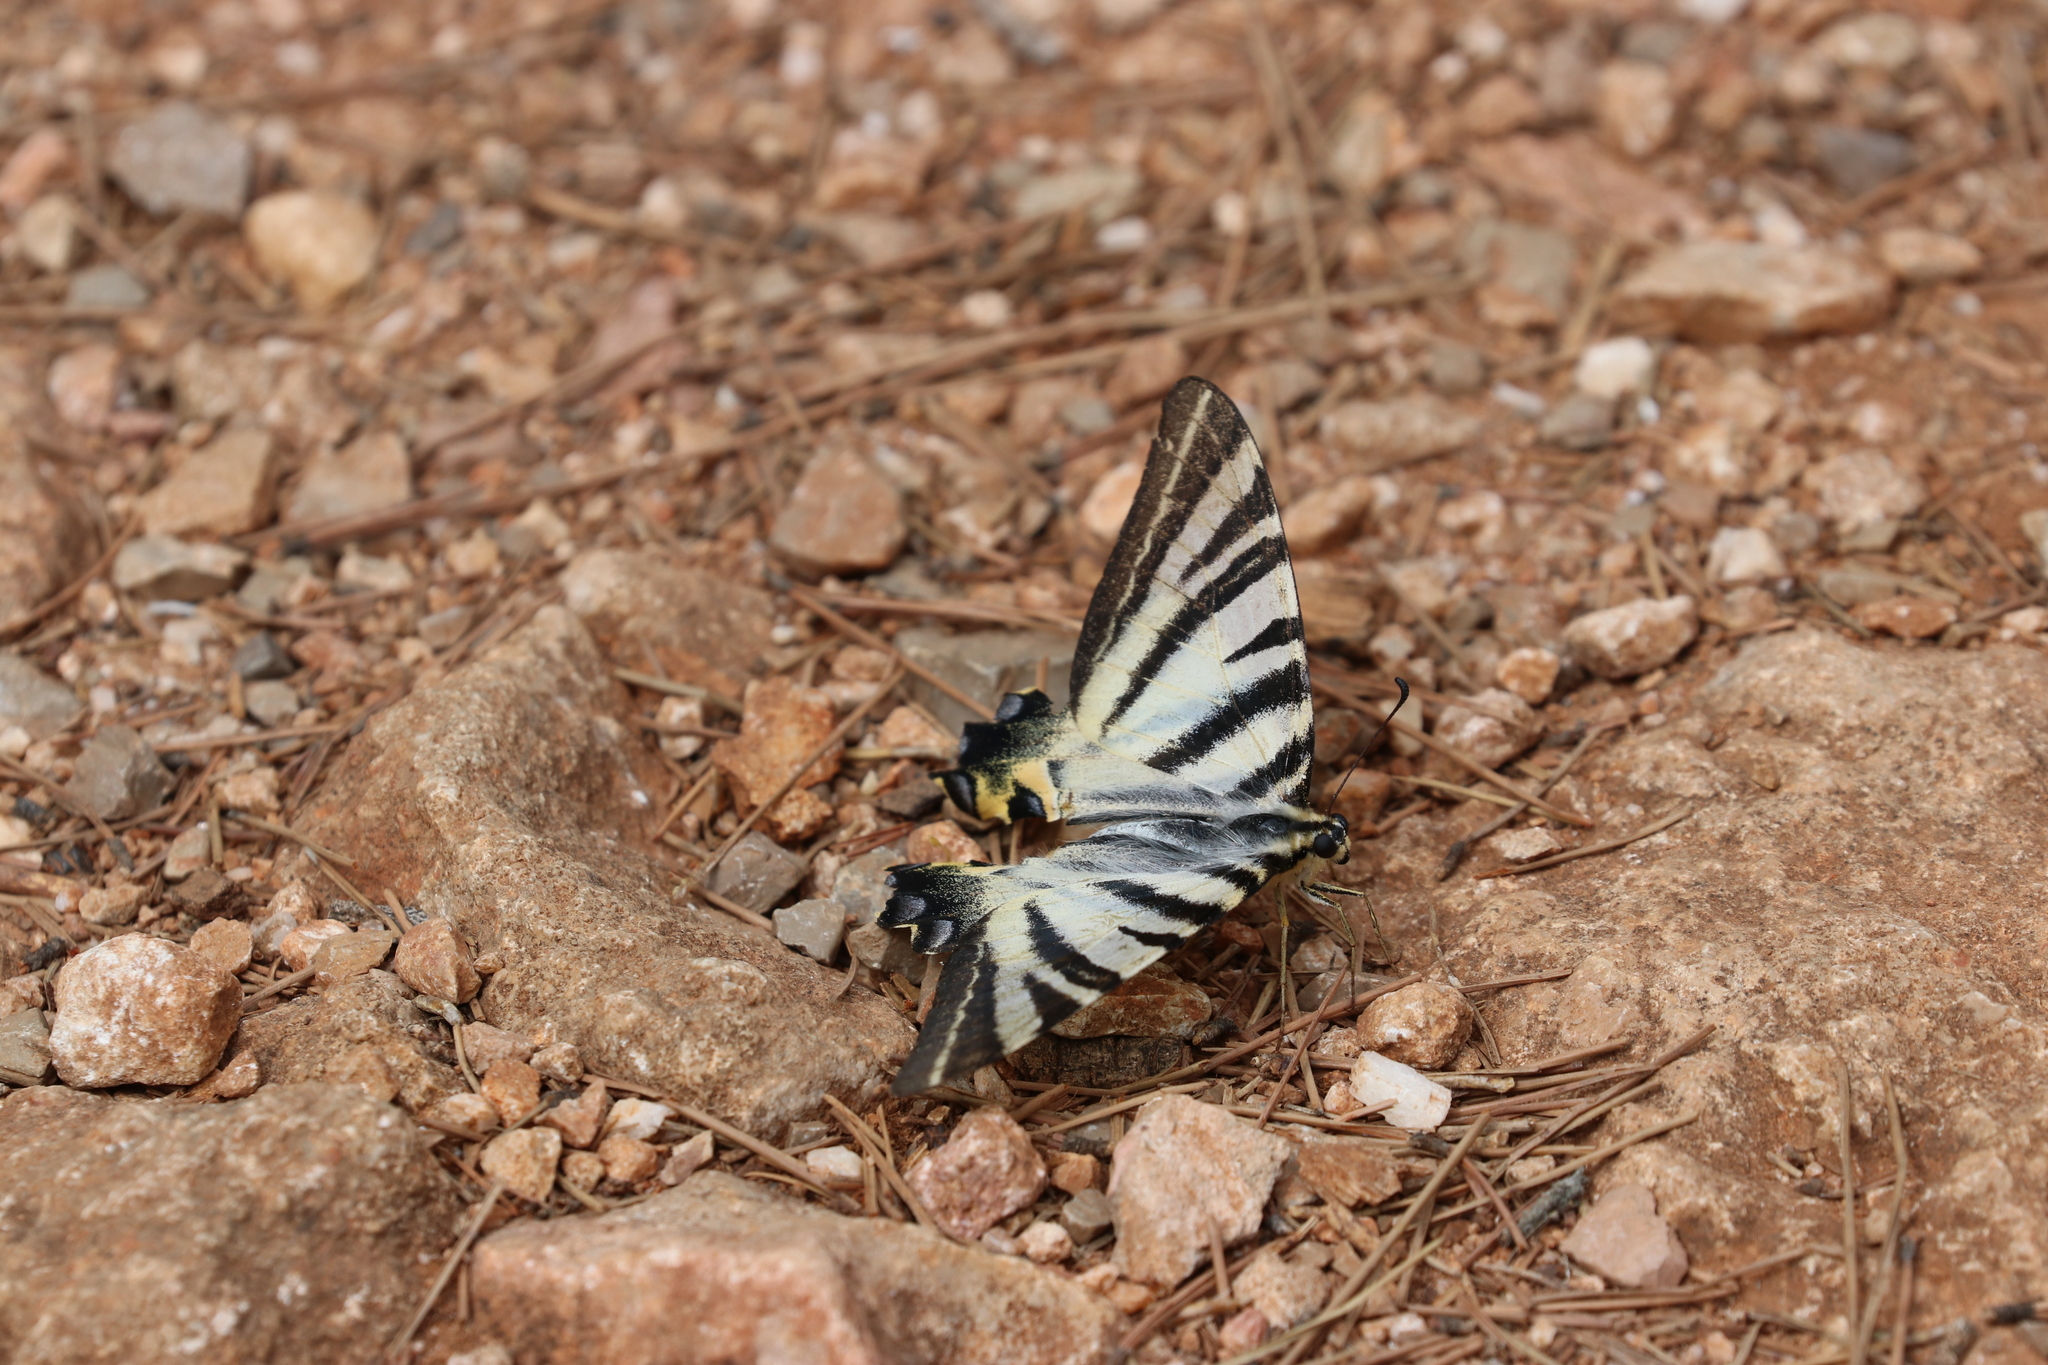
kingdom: Animalia
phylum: Arthropoda
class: Insecta
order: Lepidoptera
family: Papilionidae
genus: Iphiclides
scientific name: Iphiclides podalirius
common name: Scarce swallowtail
